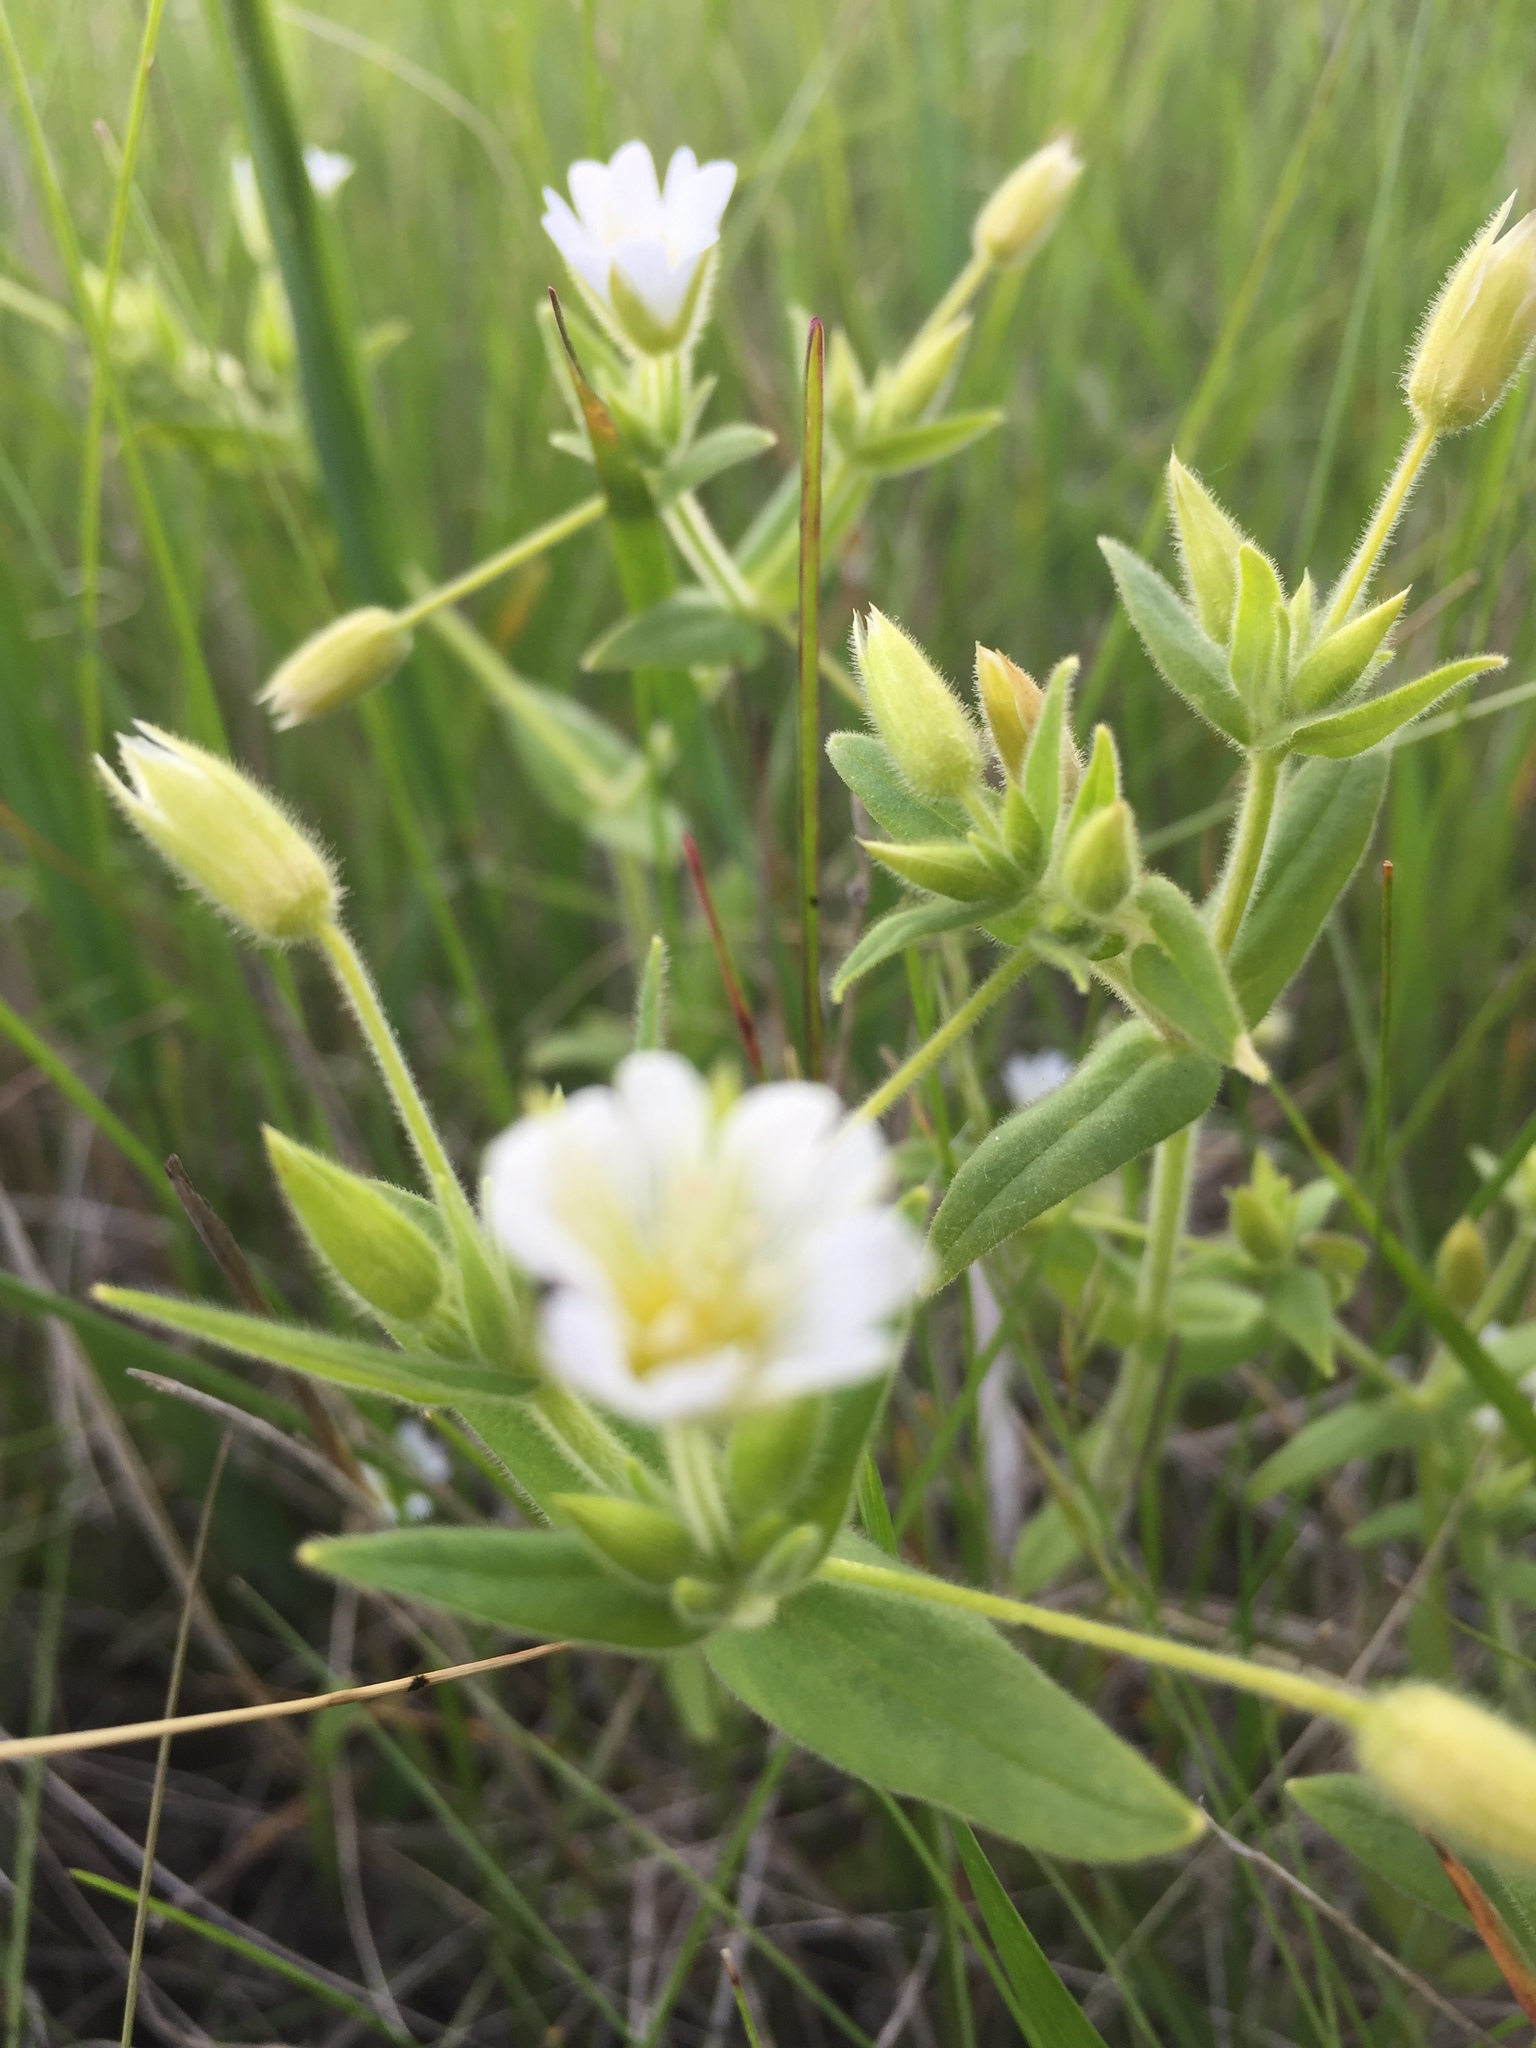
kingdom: Plantae
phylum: Tracheophyta
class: Magnoliopsida
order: Caryophyllales
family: Caryophyllaceae
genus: Cerastium
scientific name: Cerastium nemorale
